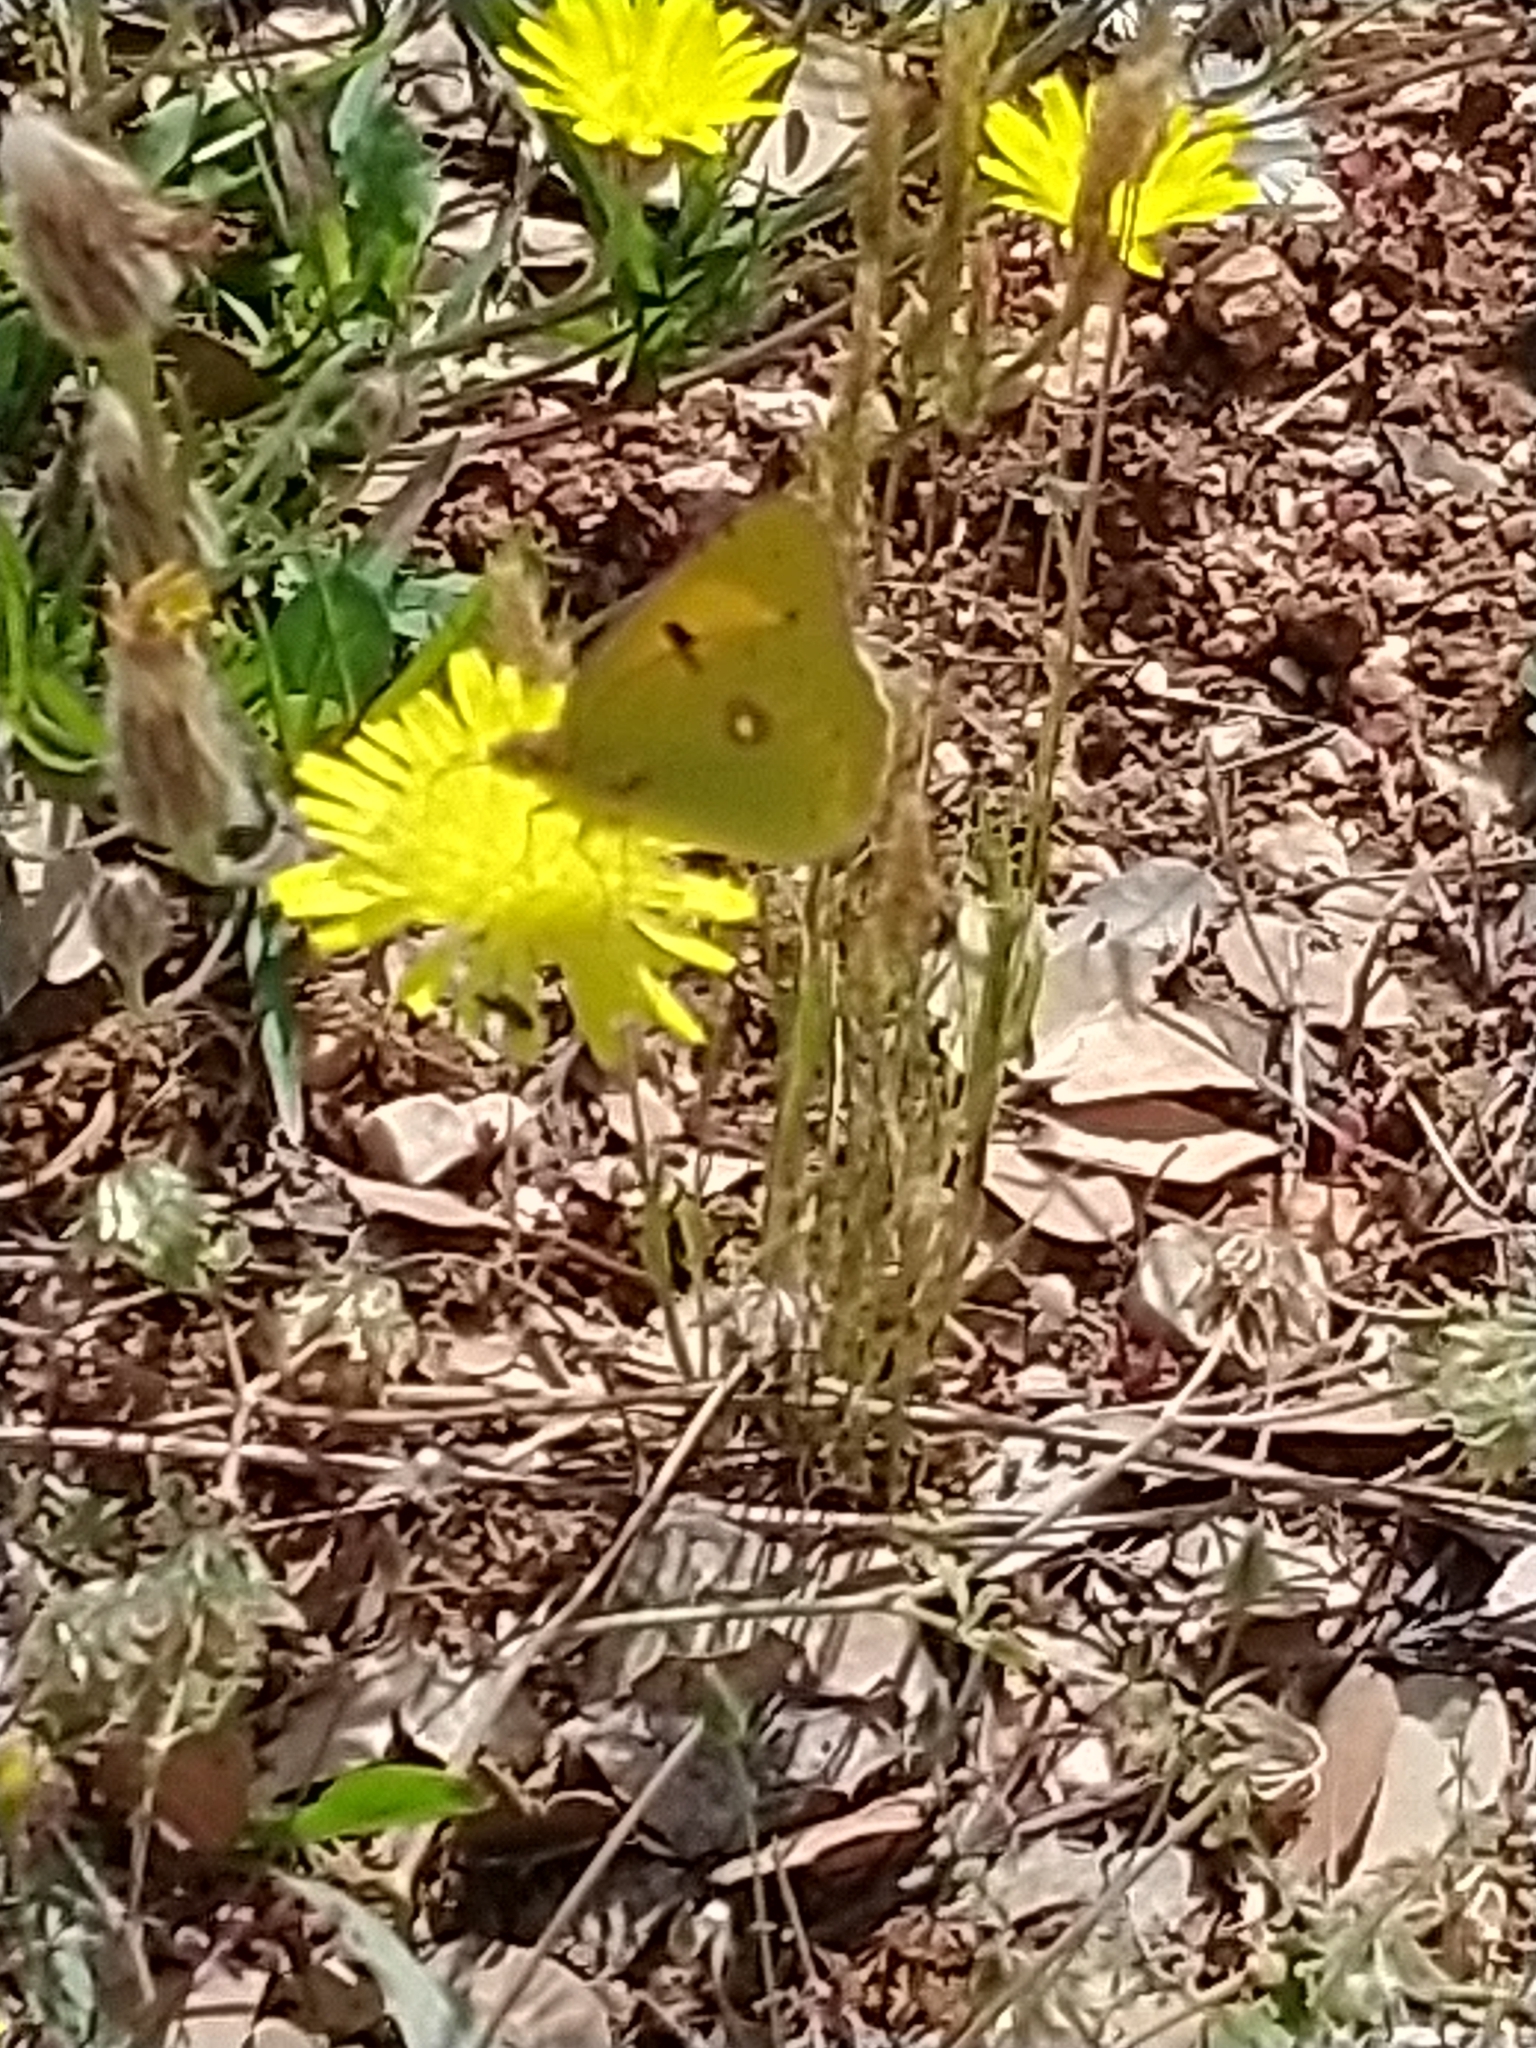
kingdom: Animalia
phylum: Arthropoda
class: Insecta
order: Lepidoptera
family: Pieridae
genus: Colias
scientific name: Colias croceus
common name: Clouded yellow
